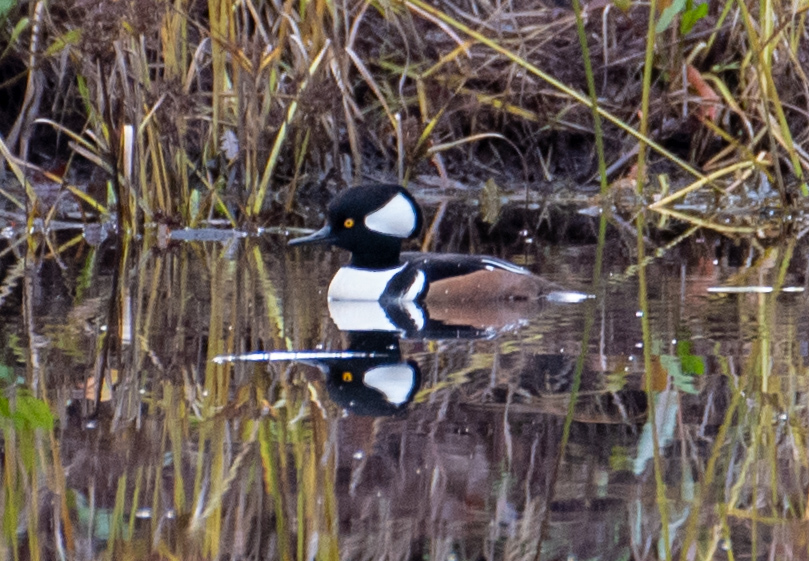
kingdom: Animalia
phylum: Chordata
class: Aves
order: Anseriformes
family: Anatidae
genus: Lophodytes
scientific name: Lophodytes cucullatus
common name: Hooded merganser
